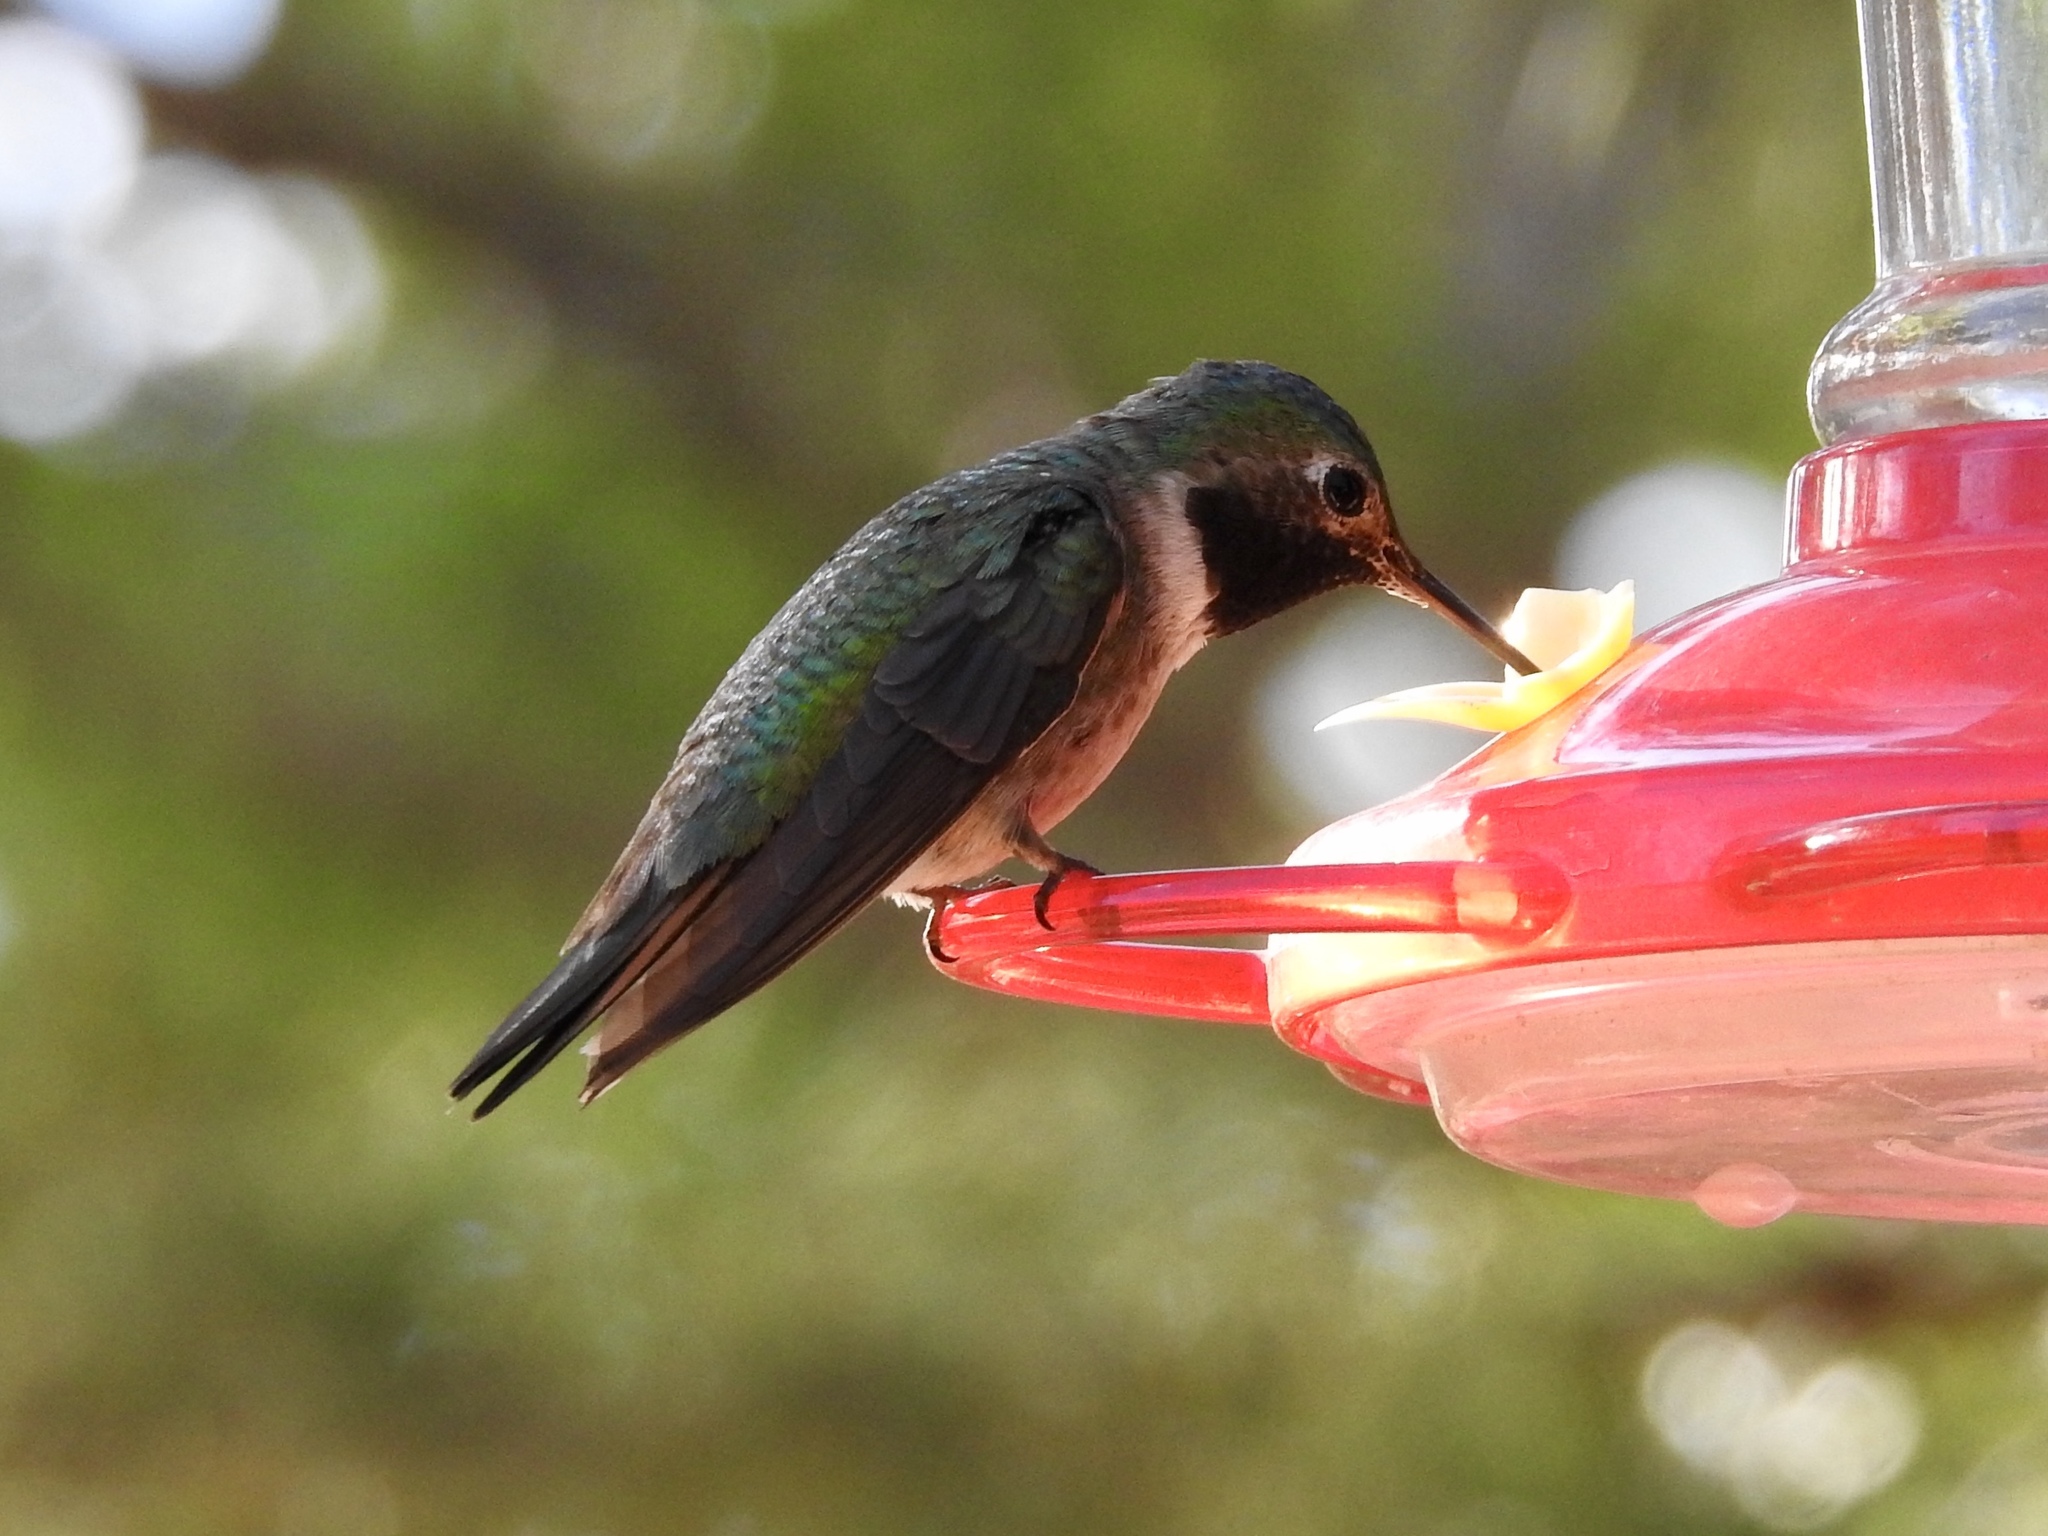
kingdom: Animalia
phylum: Chordata
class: Aves
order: Apodiformes
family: Trochilidae
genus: Selasphorus
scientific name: Selasphorus platycercus
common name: Broad-tailed hummingbird
